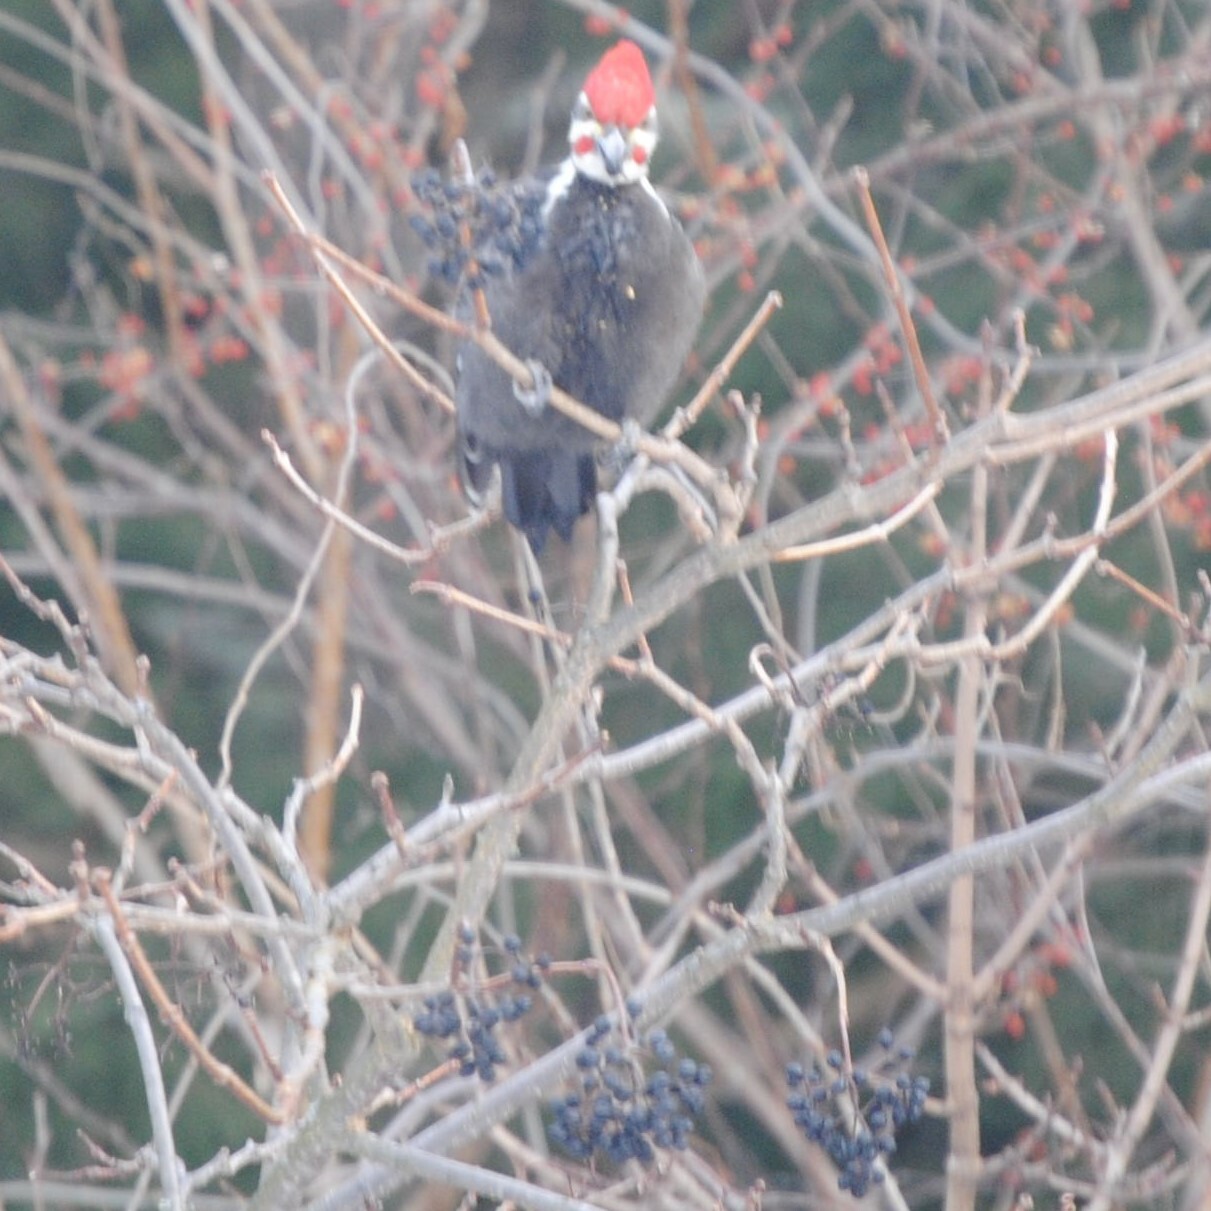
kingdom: Animalia
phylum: Chordata
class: Aves
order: Piciformes
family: Picidae
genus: Dryocopus
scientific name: Dryocopus pileatus
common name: Pileated woodpecker
